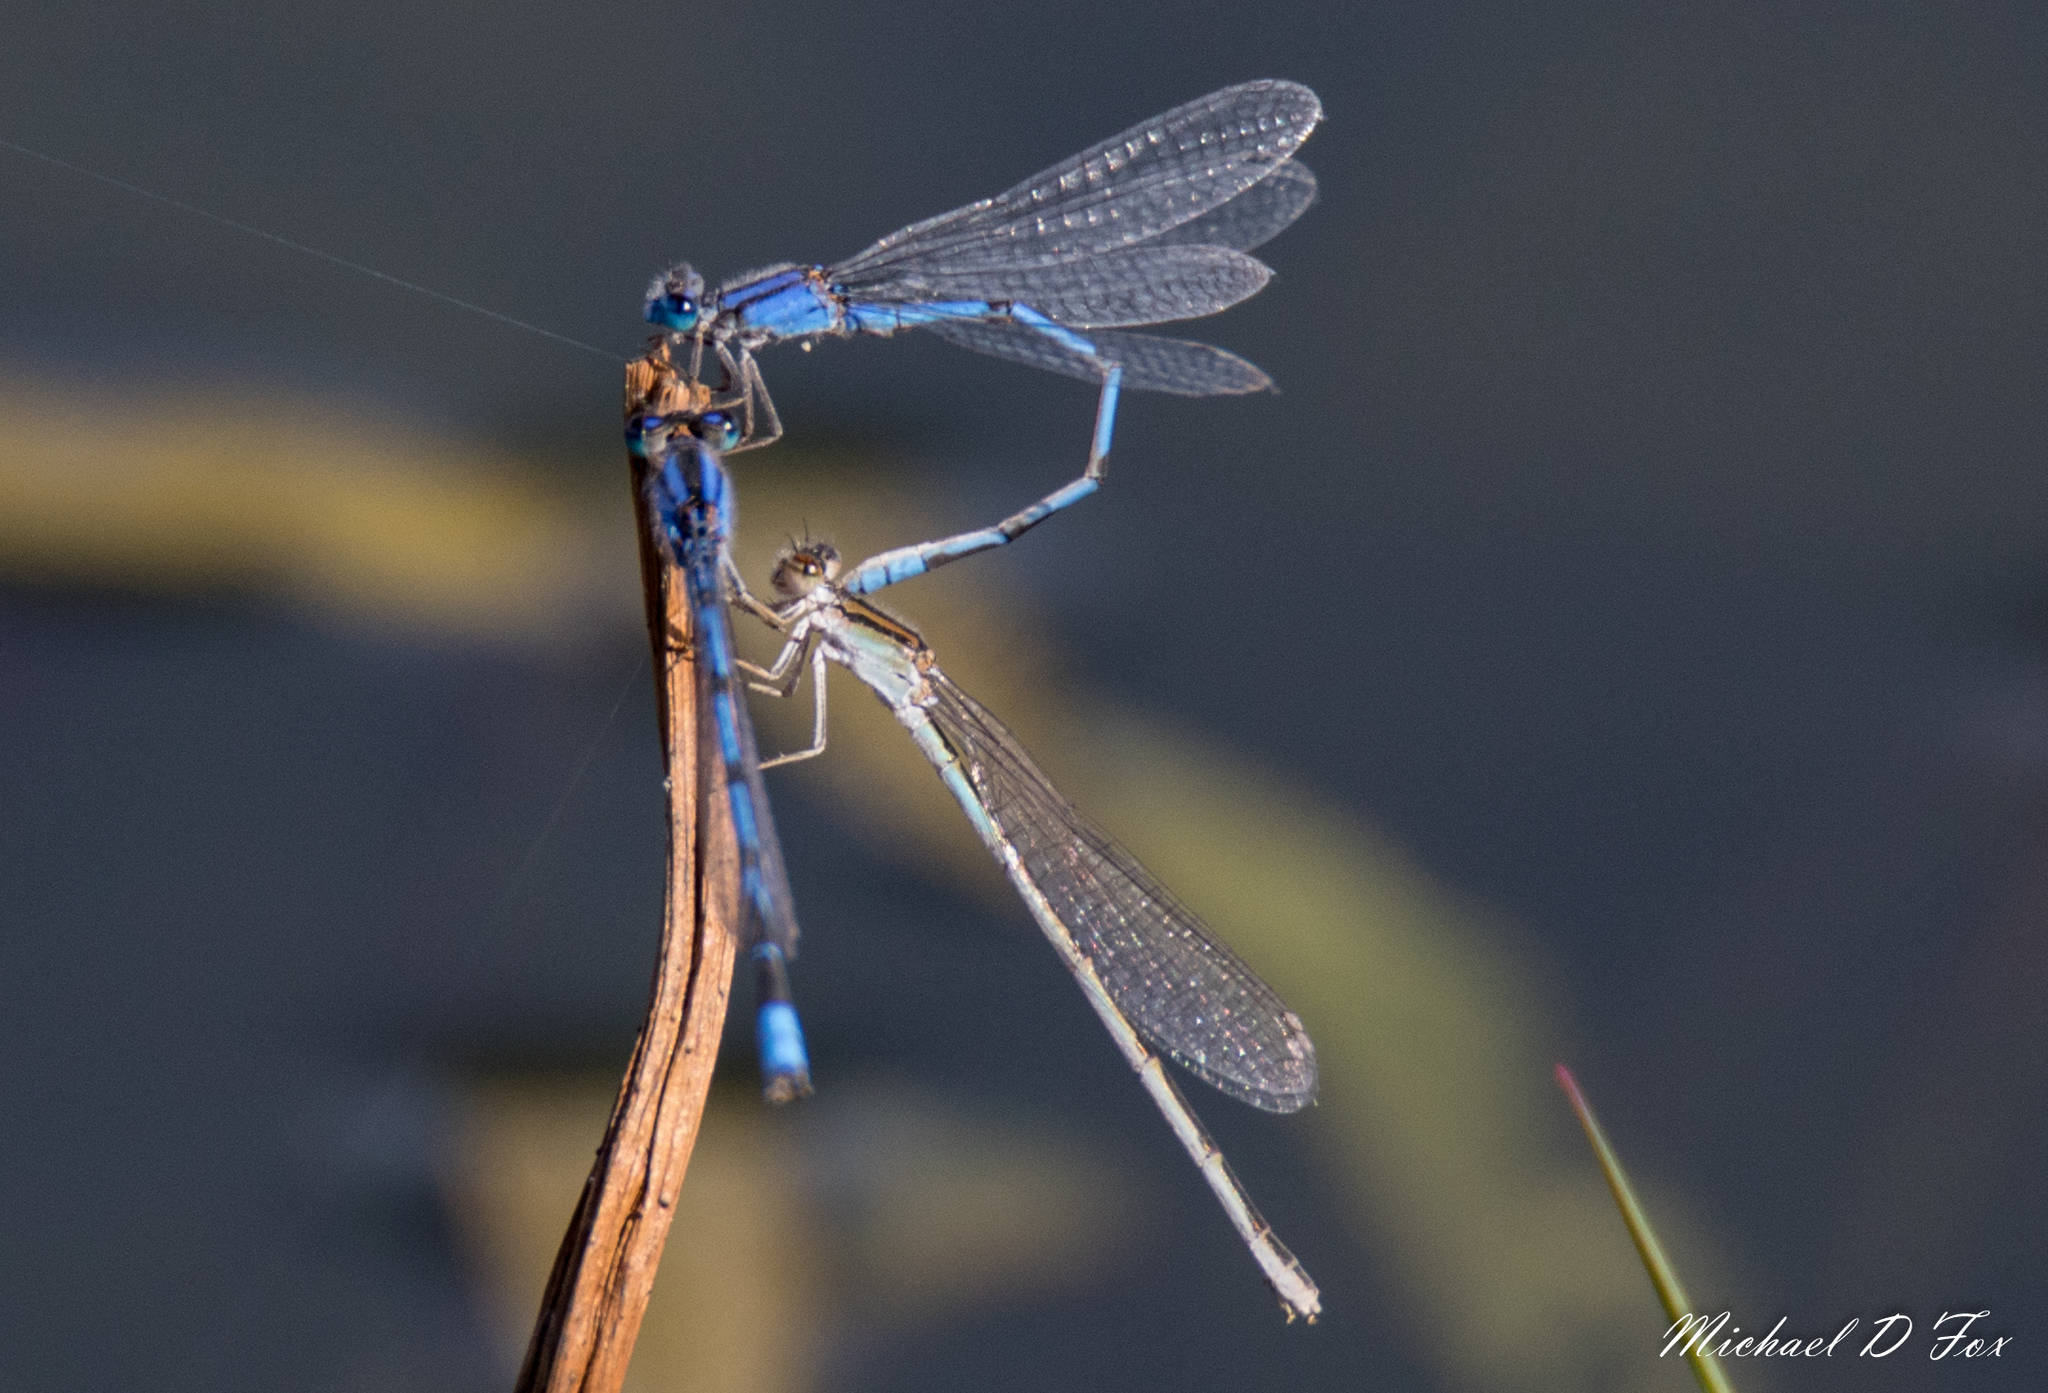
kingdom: Animalia
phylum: Arthropoda
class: Insecta
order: Odonata
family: Coenagrionidae
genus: Enallagma
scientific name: Enallagma civile
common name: Damselfly
